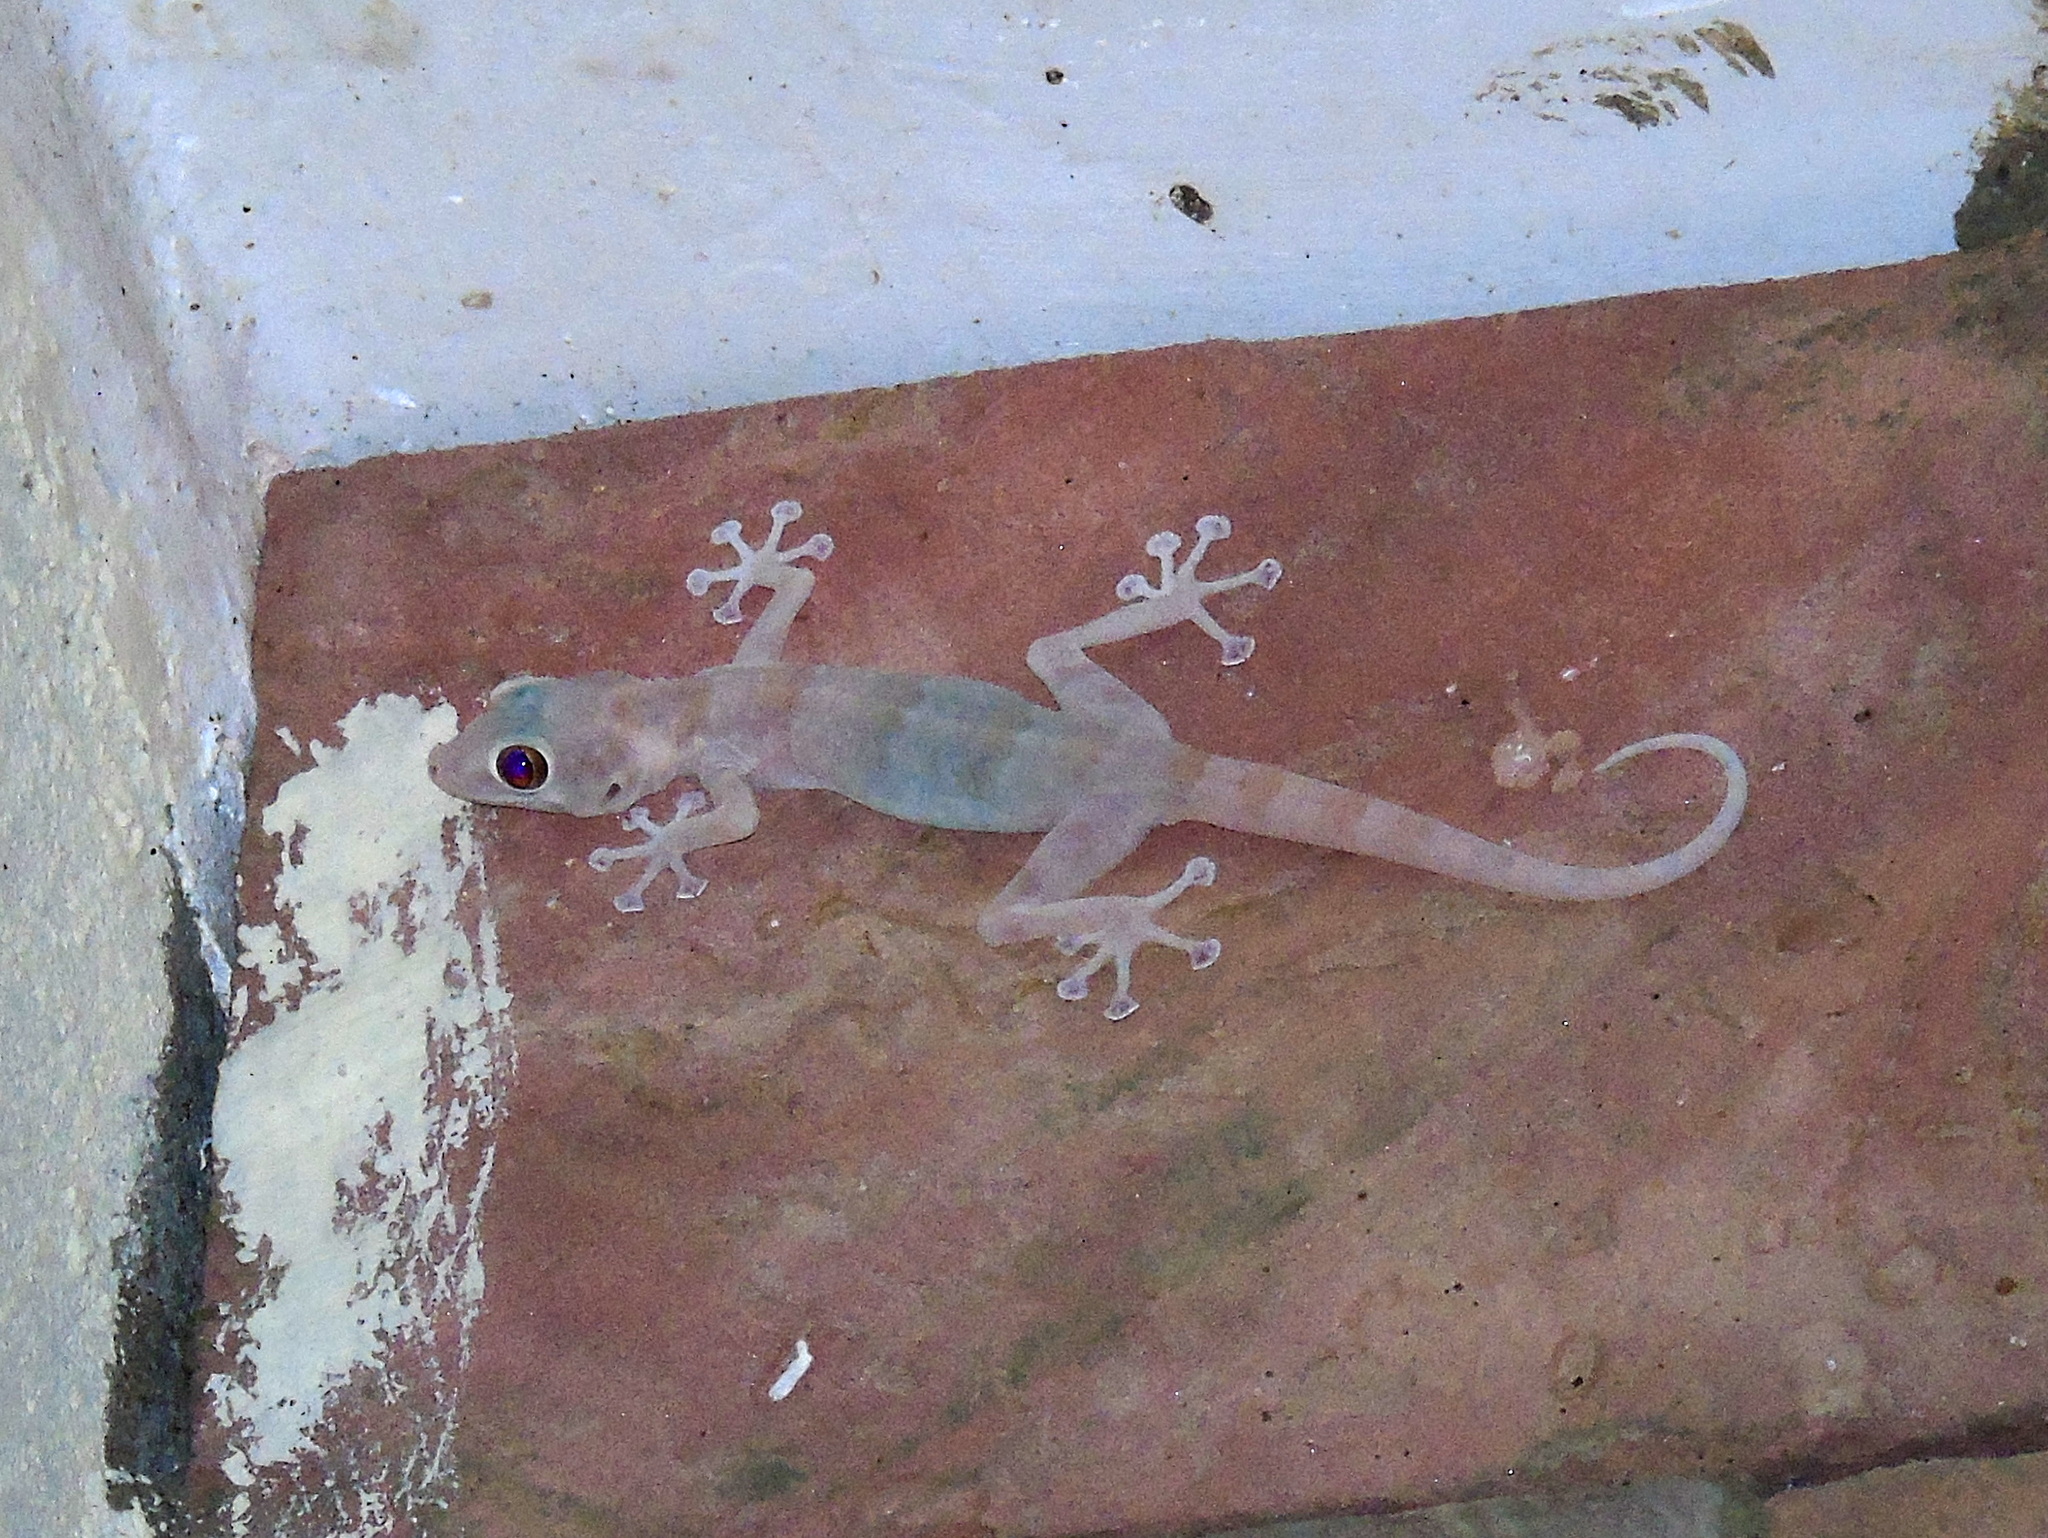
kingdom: Animalia
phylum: Chordata
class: Squamata
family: Phyllodactylidae
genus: Ptyodactylus
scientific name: Ptyodactylus hasselquistii
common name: Hasselquist’s fan-footed gecko
